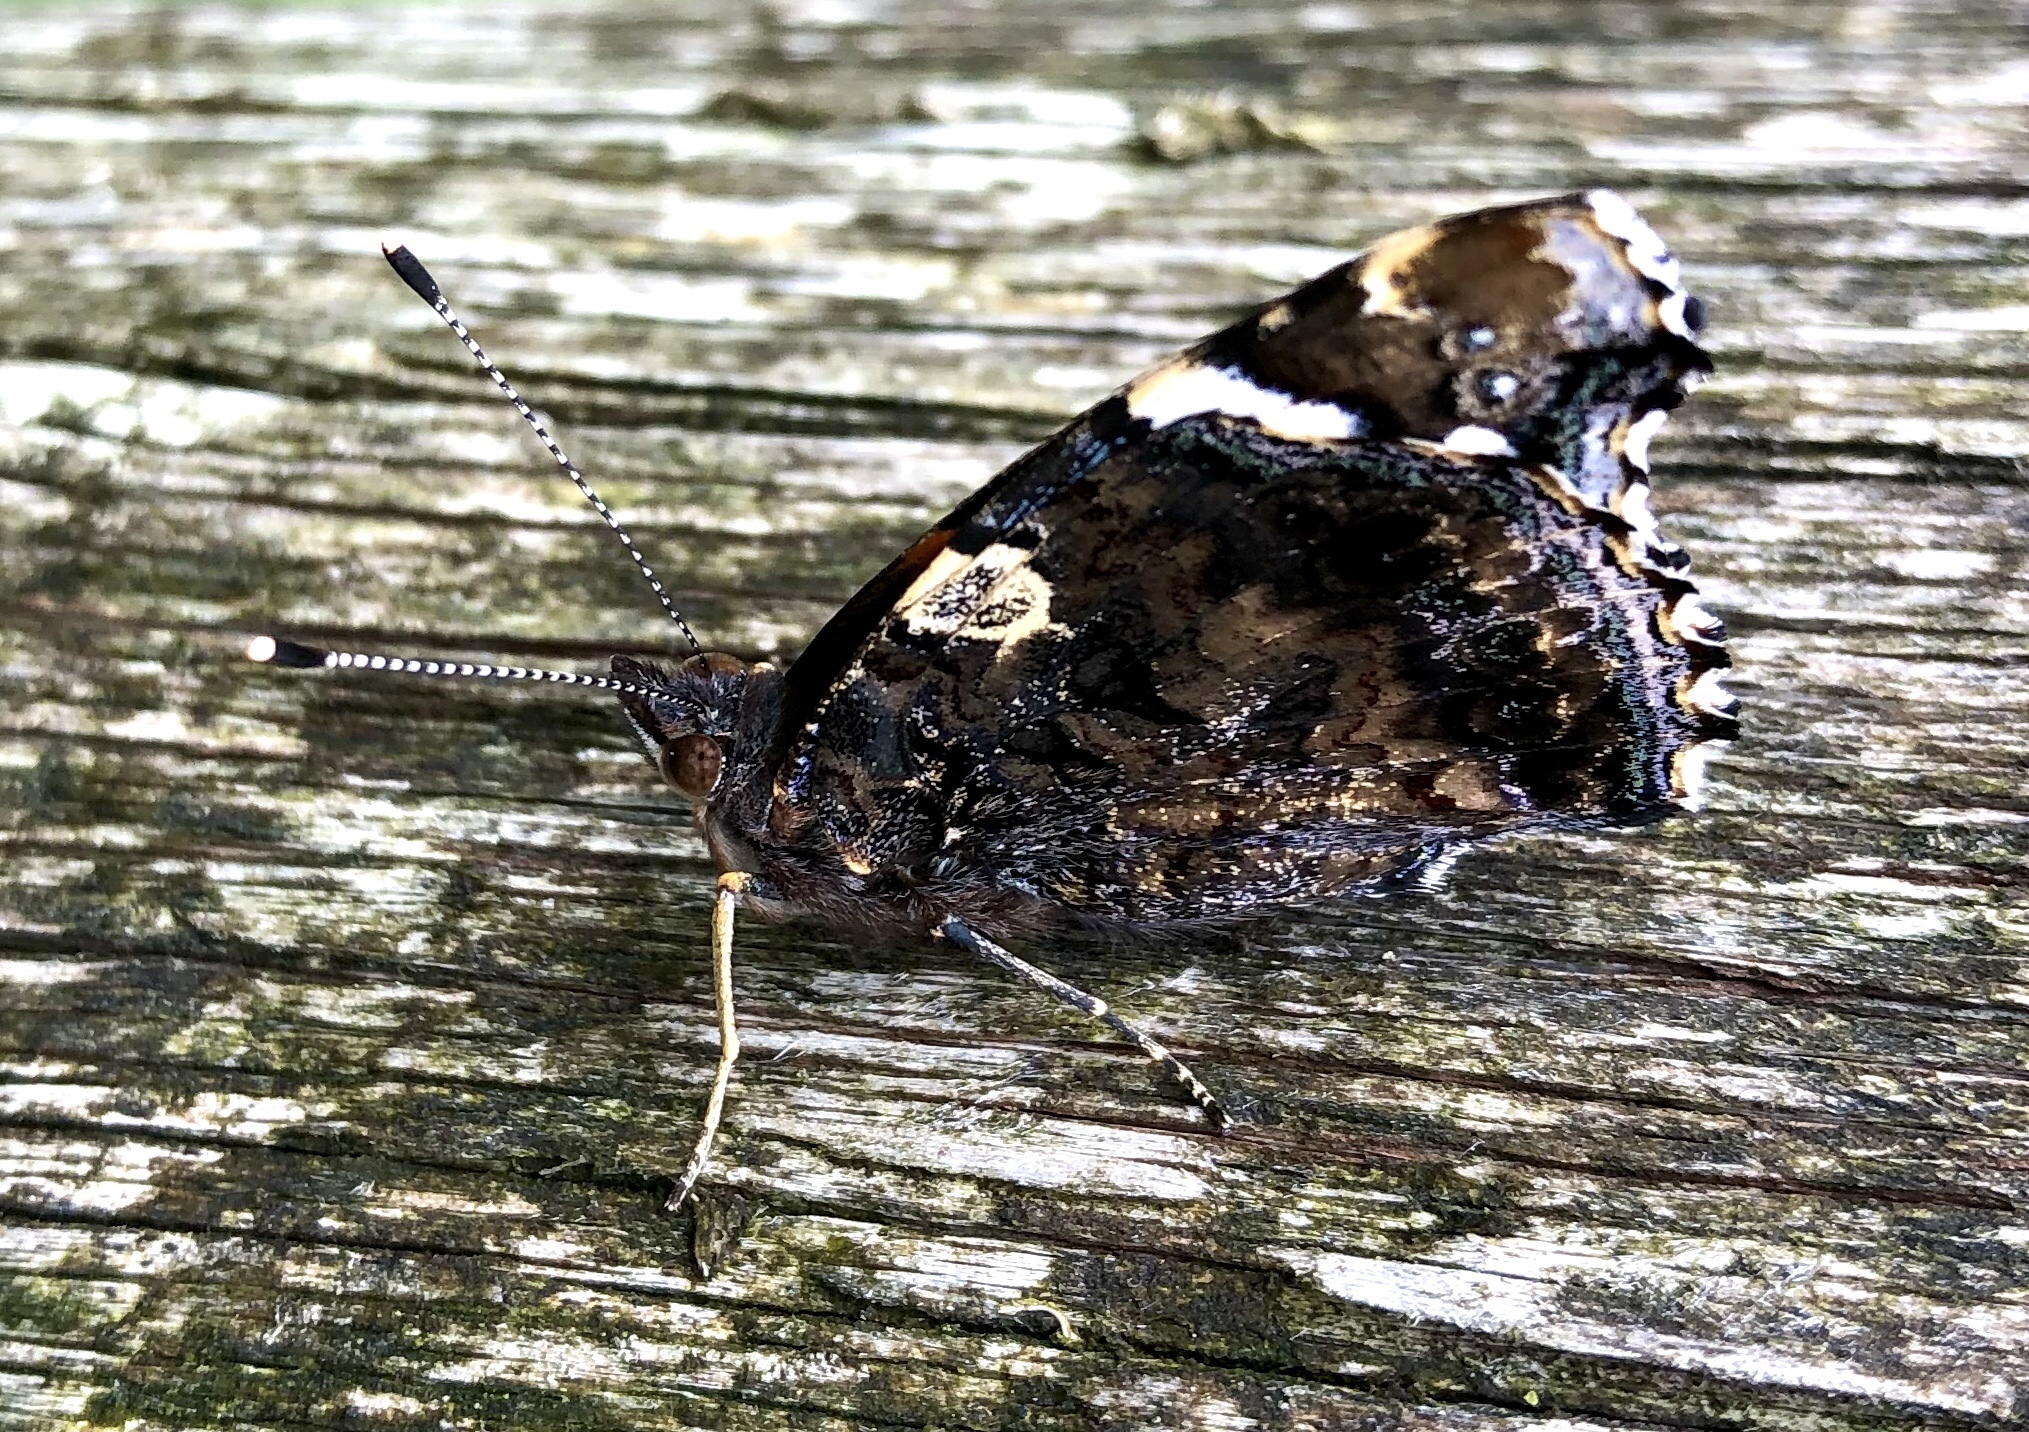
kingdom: Animalia
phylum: Arthropoda
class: Insecta
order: Lepidoptera
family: Nymphalidae
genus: Vanessa
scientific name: Vanessa atalanta
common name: Red admiral
